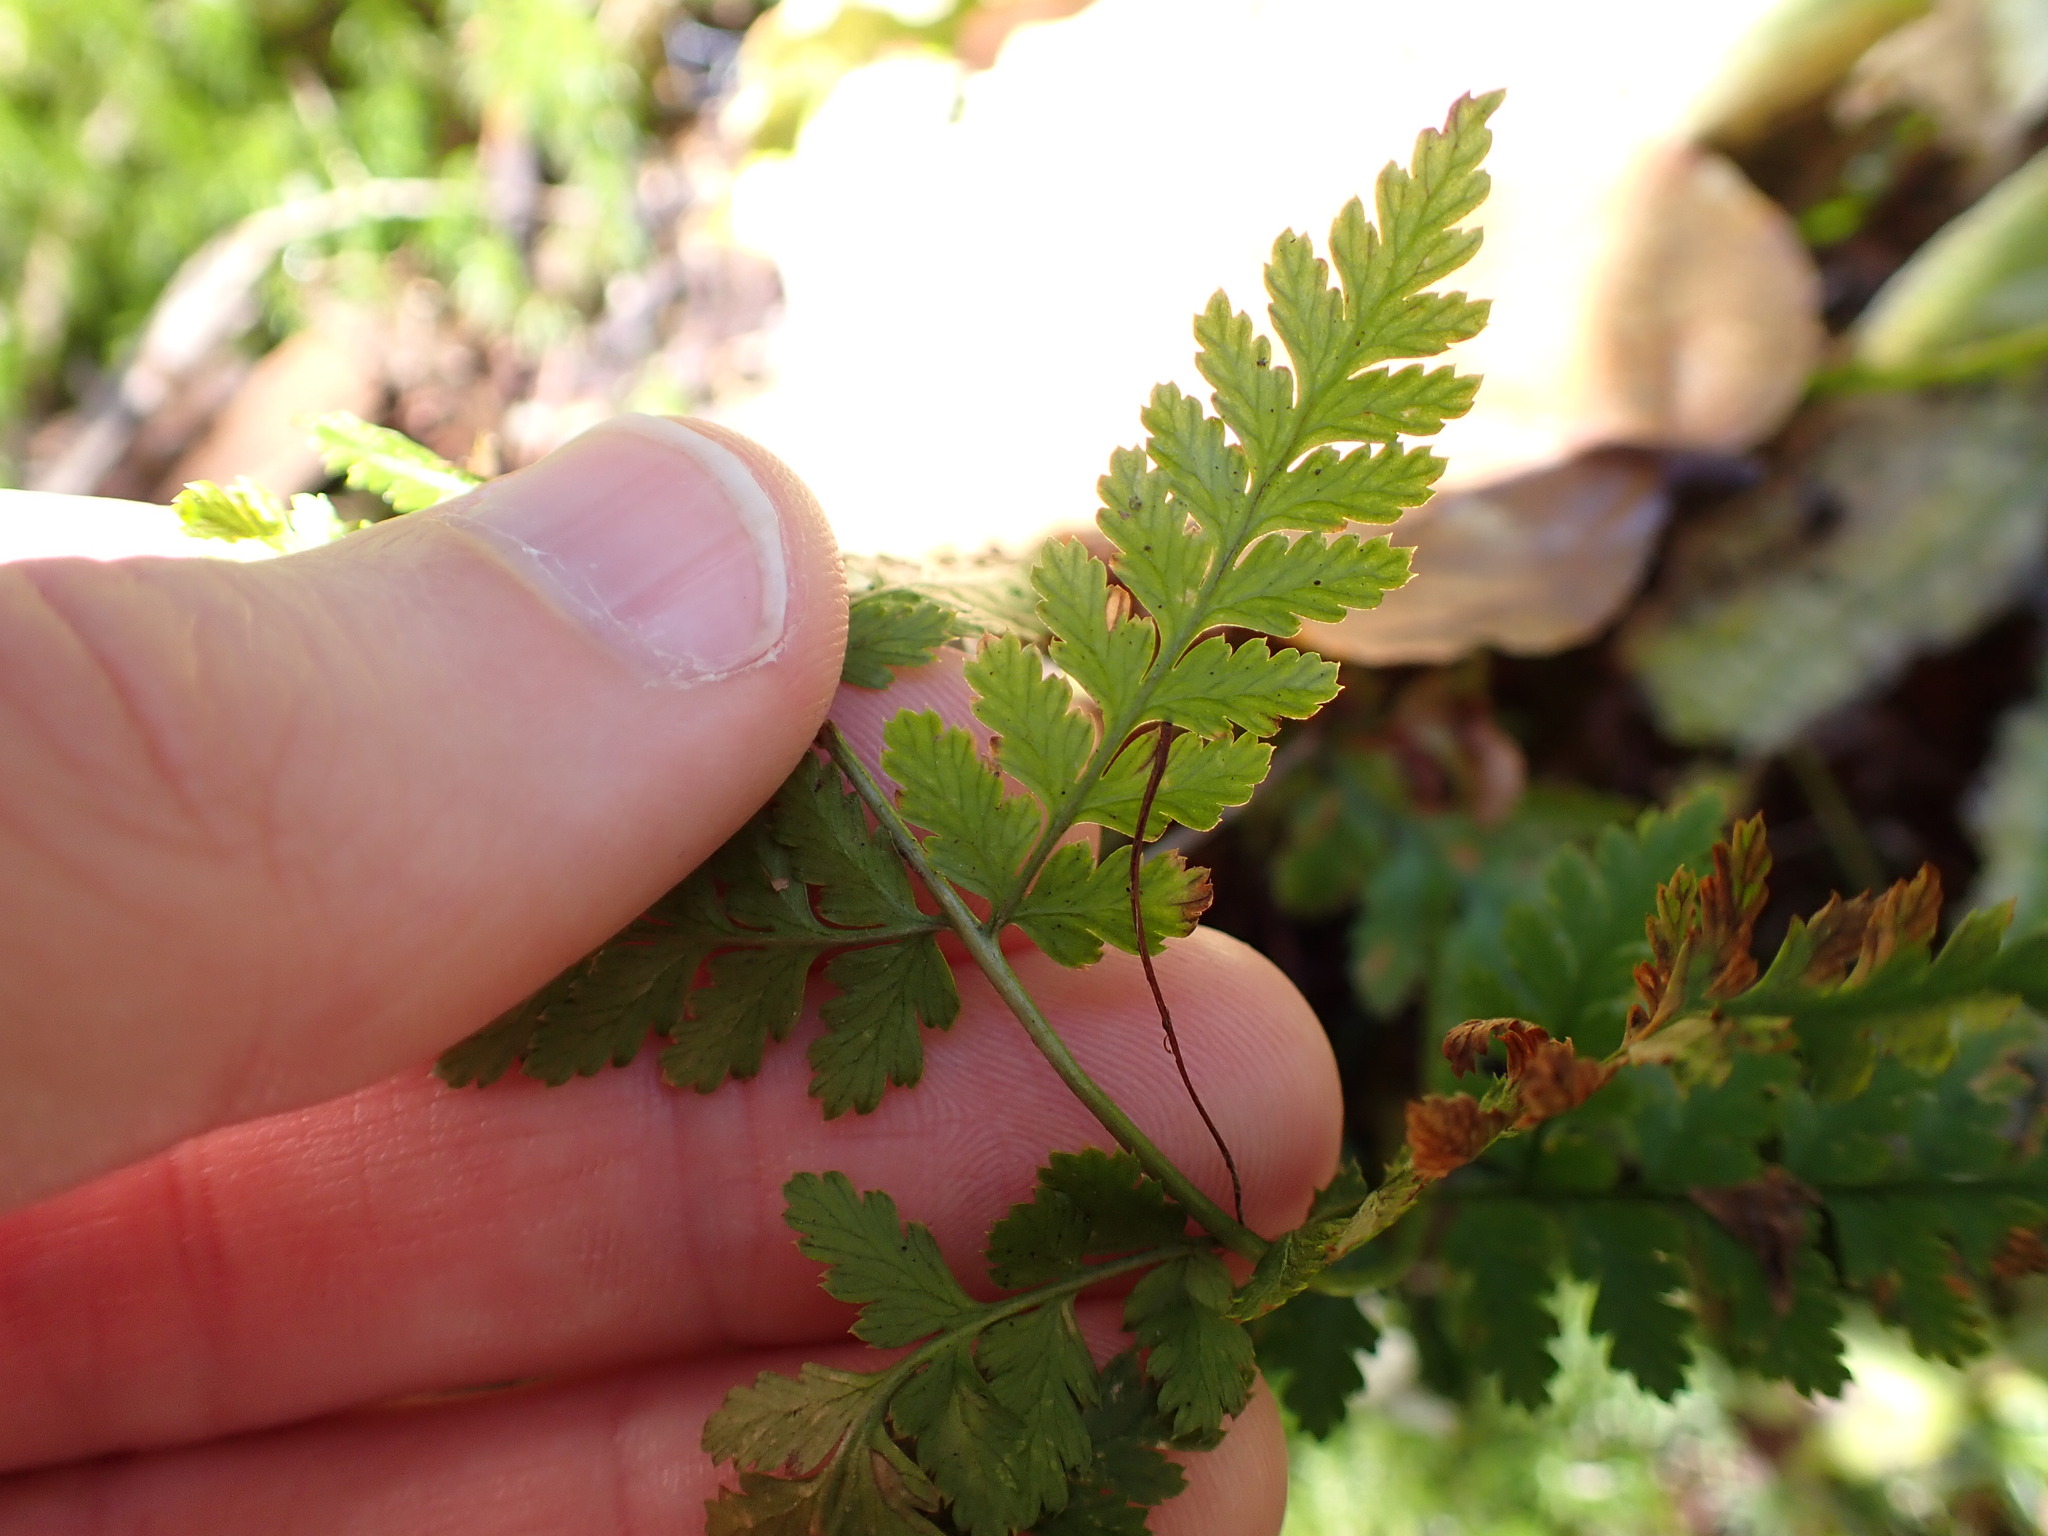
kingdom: Plantae
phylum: Tracheophyta
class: Polypodiopsida
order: Polypodiales
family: Dryopteridaceae
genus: Dryopteris
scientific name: Dryopteris expansa
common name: Northern buckler fern
